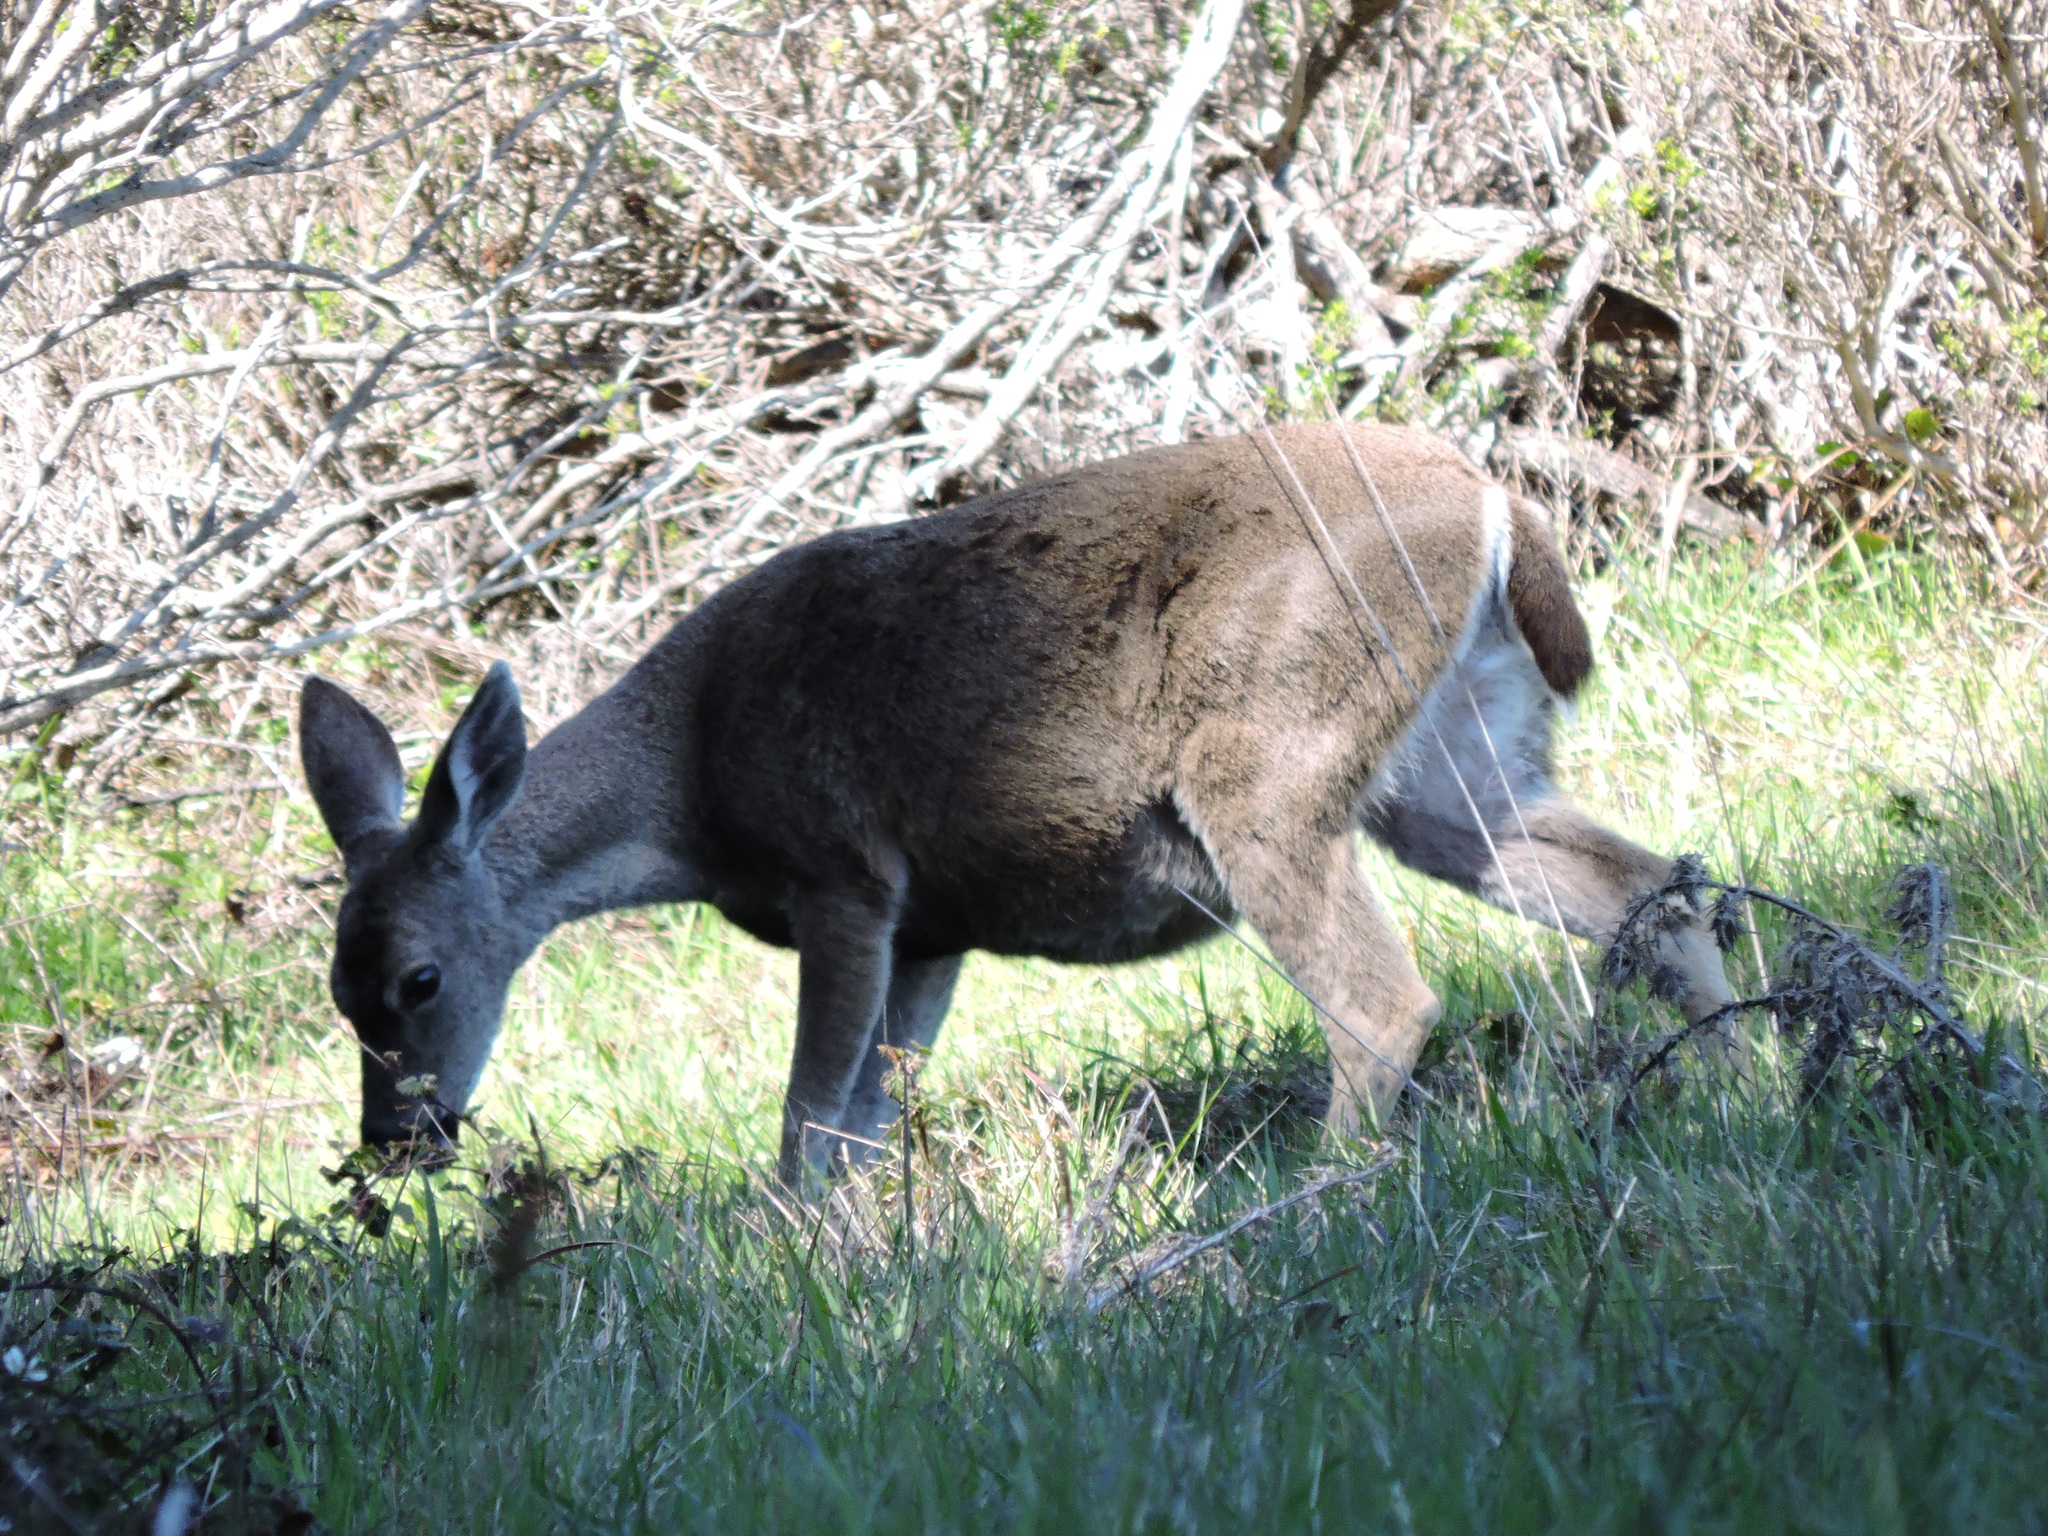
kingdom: Animalia
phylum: Chordata
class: Mammalia
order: Artiodactyla
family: Cervidae
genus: Odocoileus
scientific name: Odocoileus hemionus
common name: Mule deer
